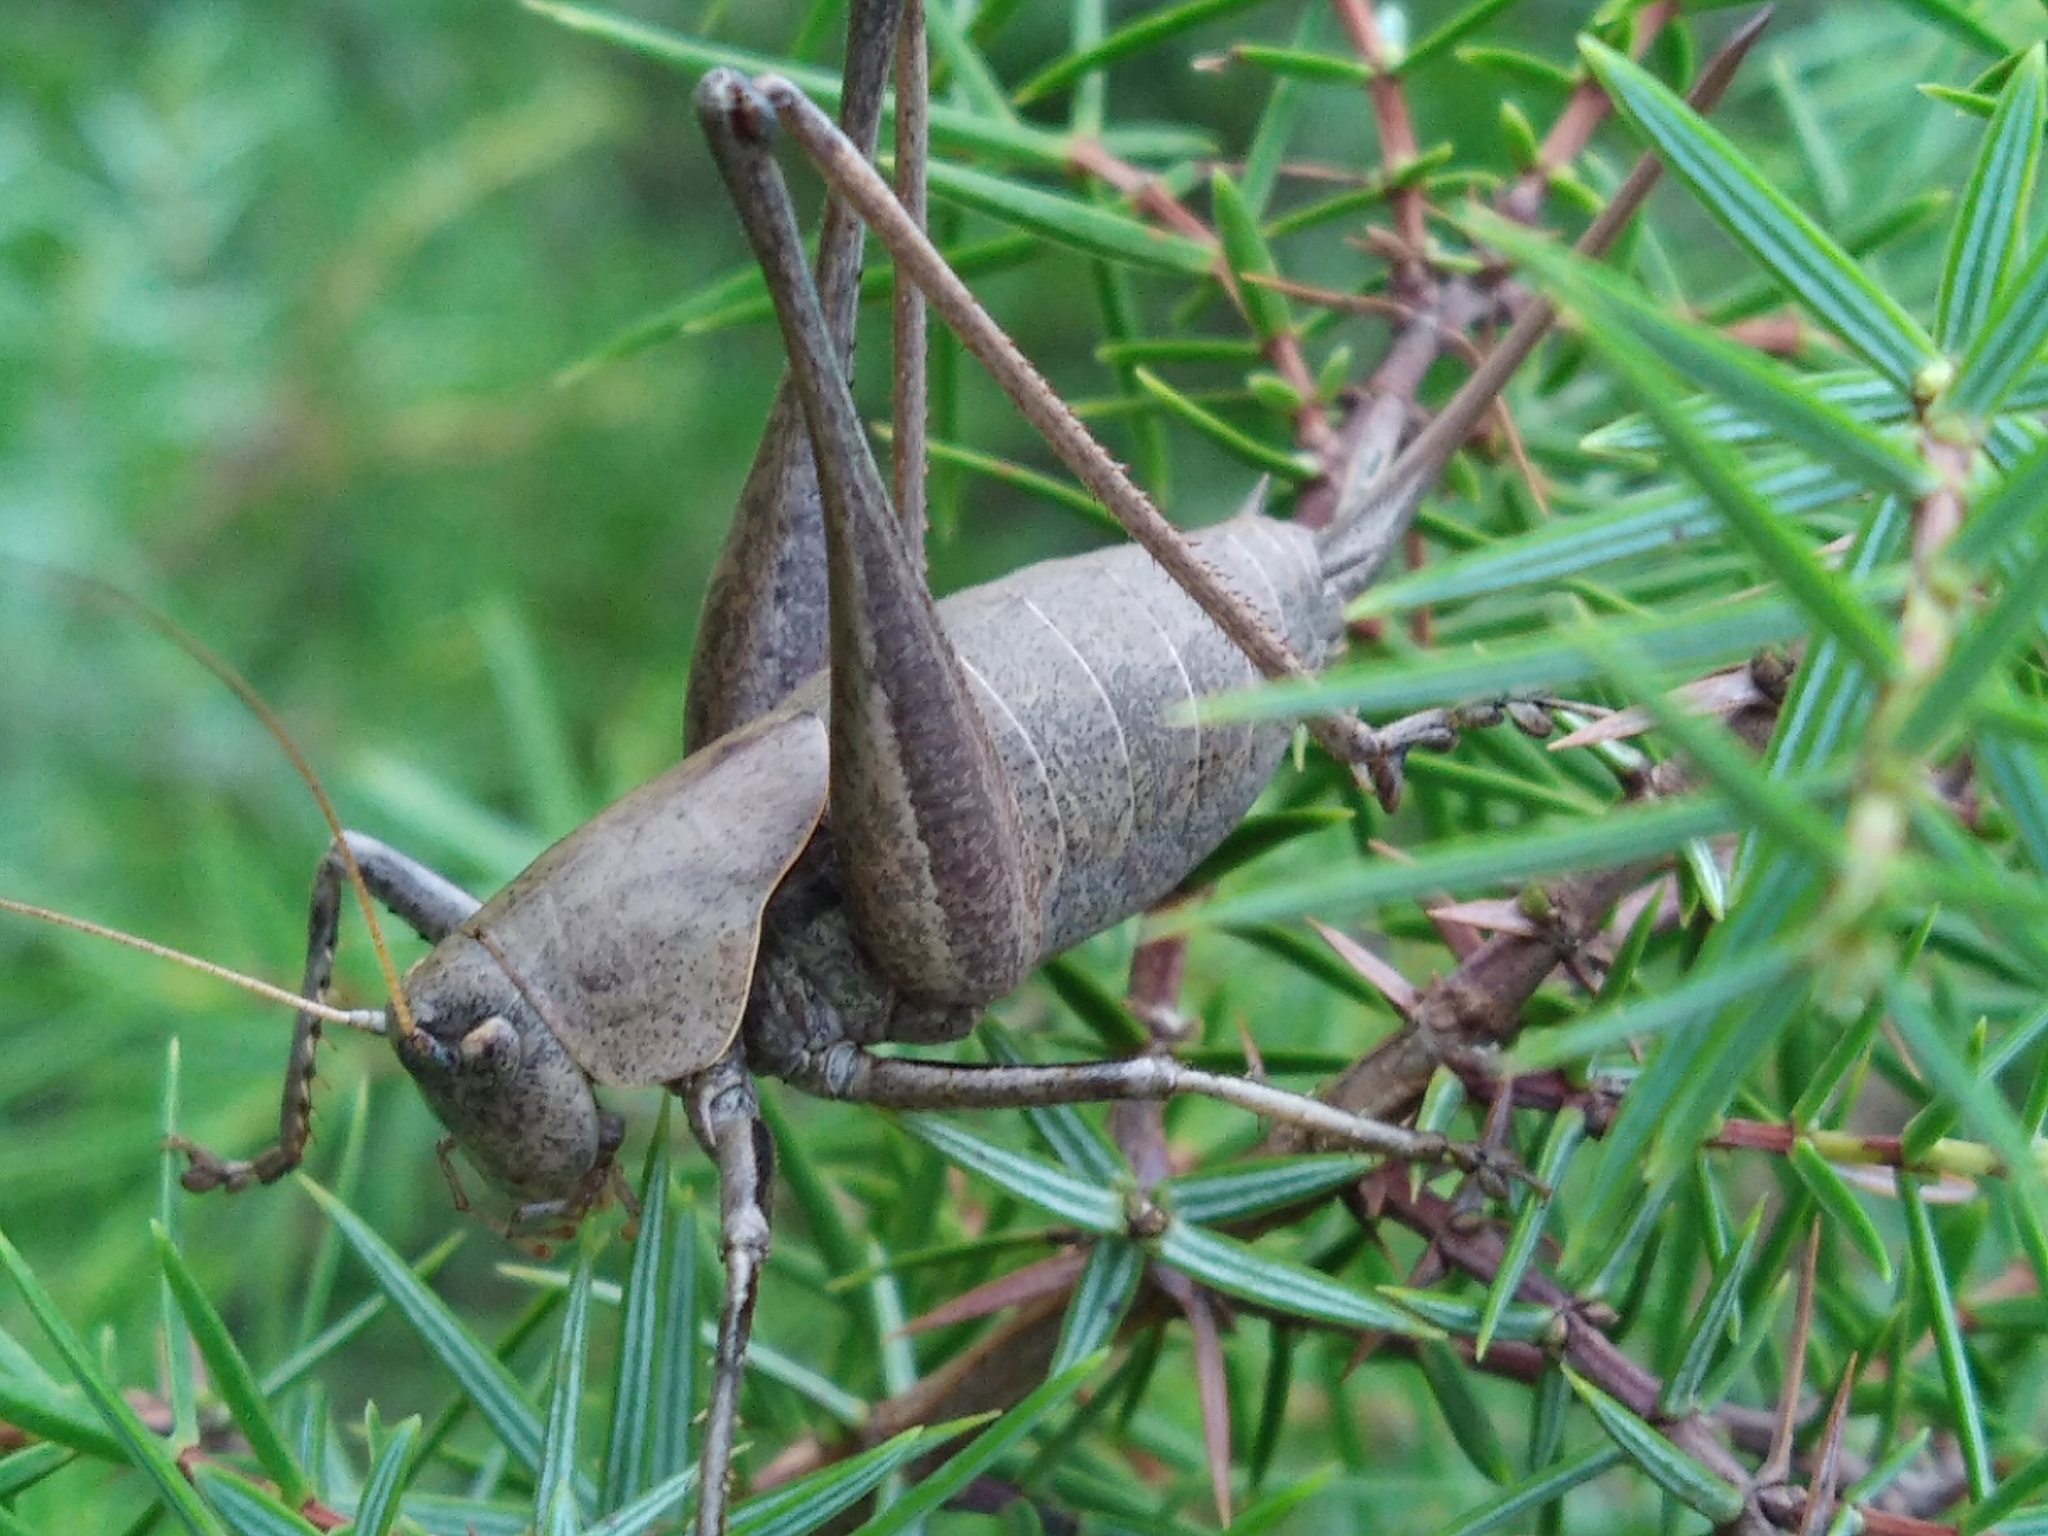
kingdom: Animalia
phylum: Arthropoda
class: Insecta
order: Orthoptera
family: Tettigoniidae
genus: Thyreonotus
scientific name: Thyreonotus corsicus
